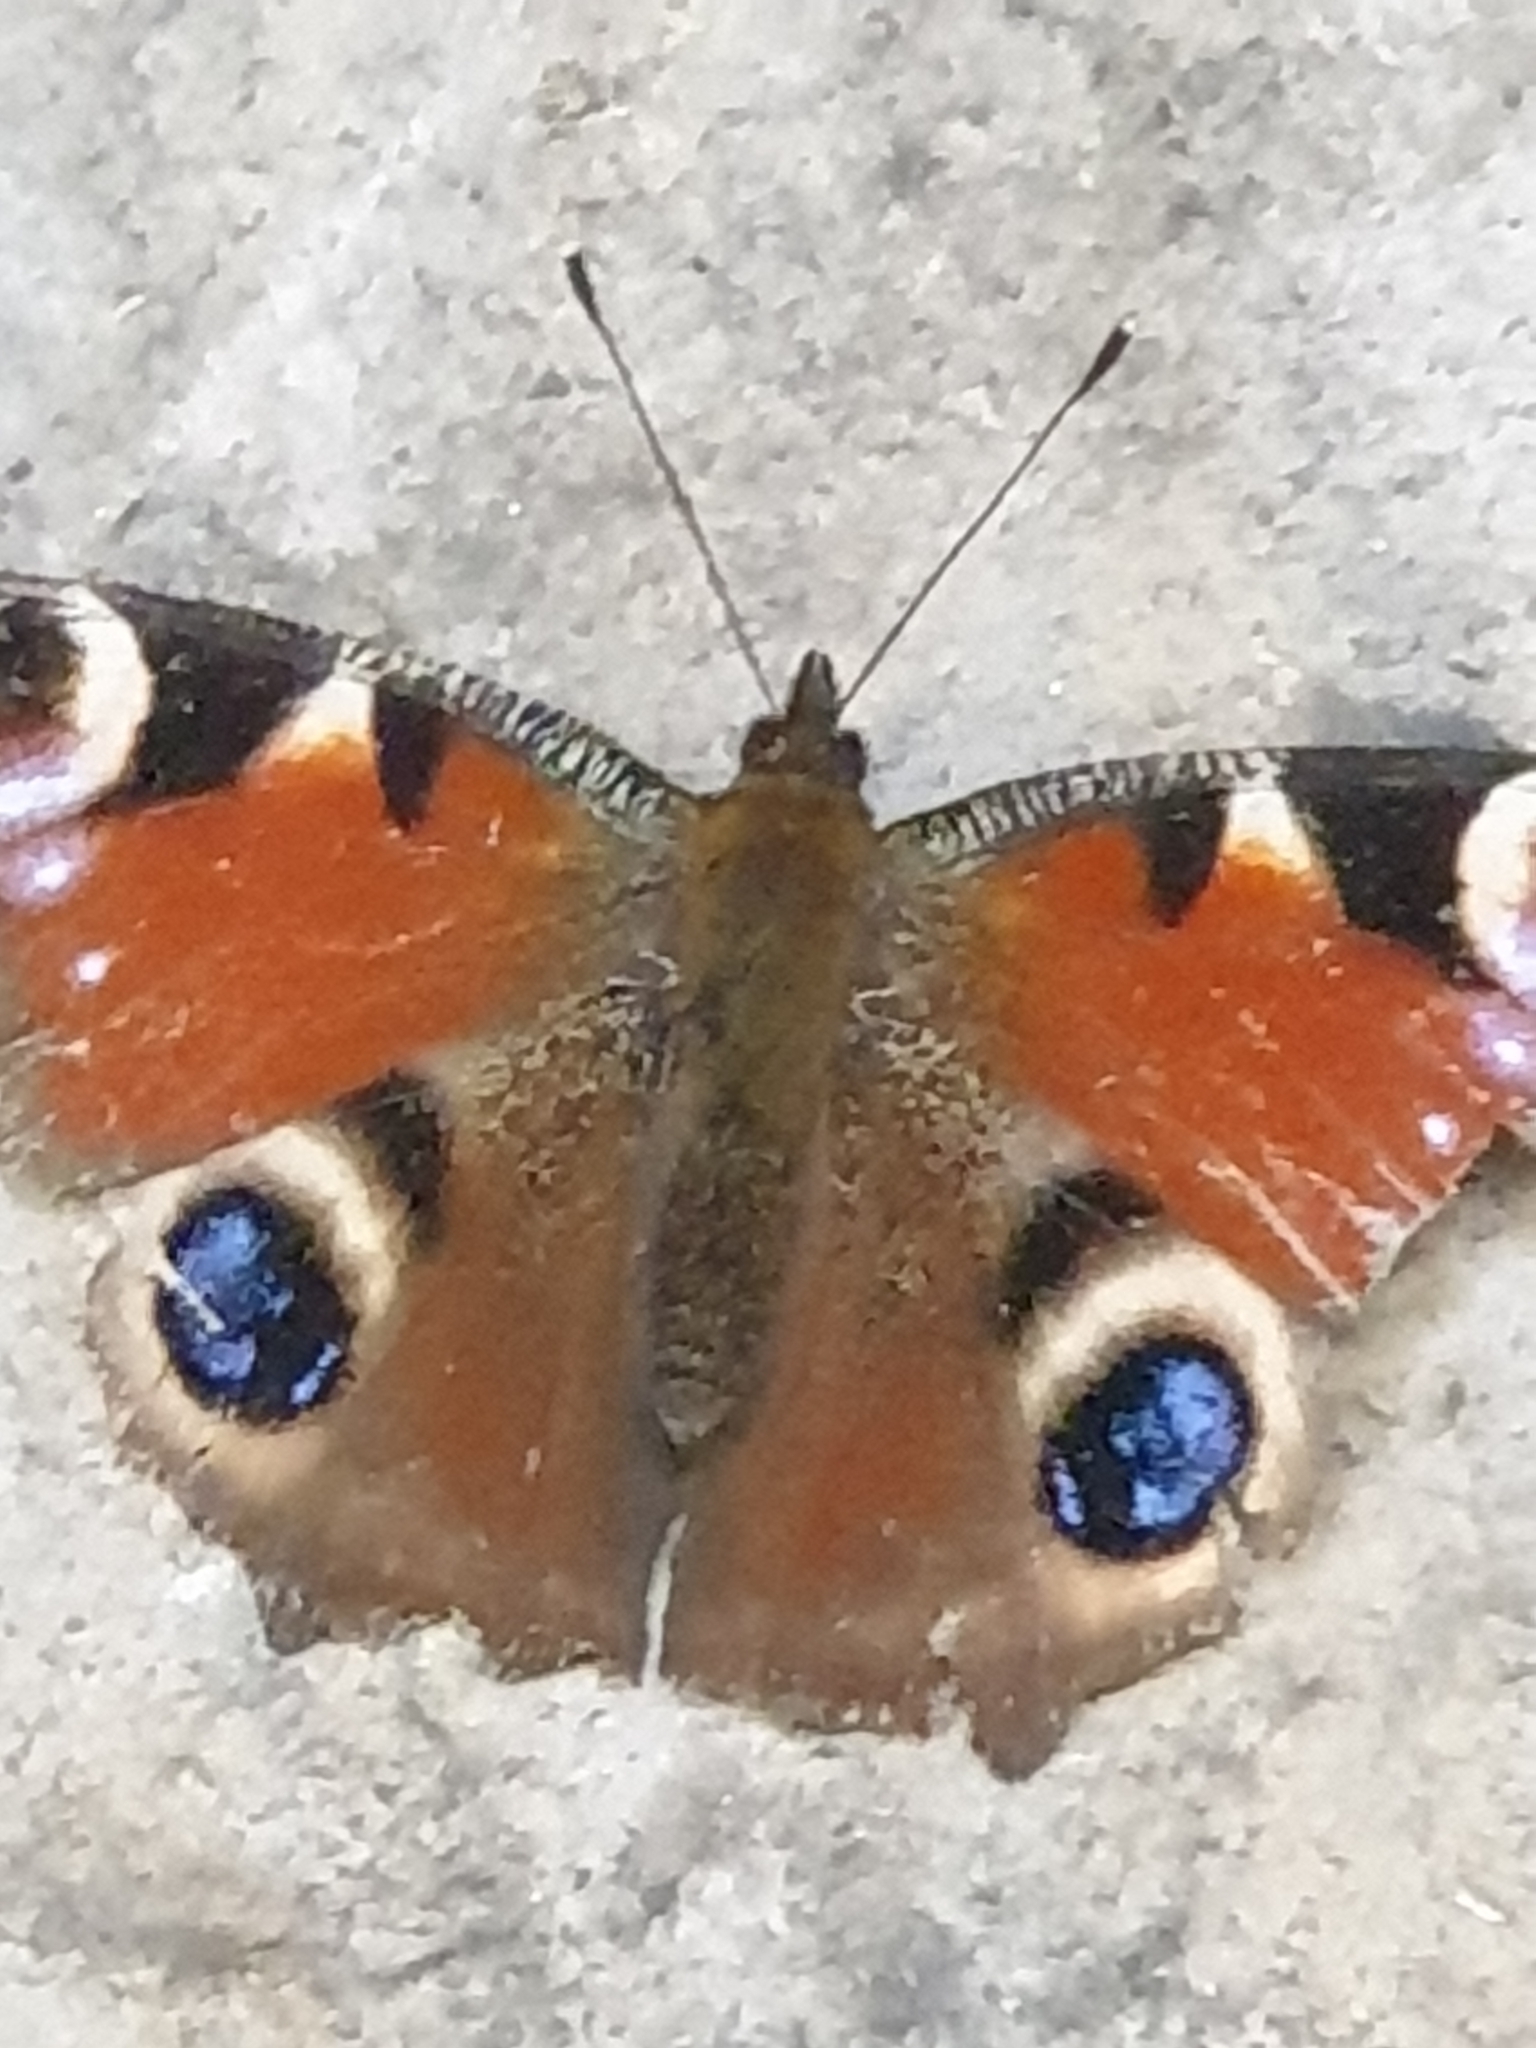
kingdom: Animalia
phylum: Arthropoda
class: Insecta
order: Lepidoptera
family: Nymphalidae
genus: Aglais
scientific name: Aglais io
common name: Peacock
